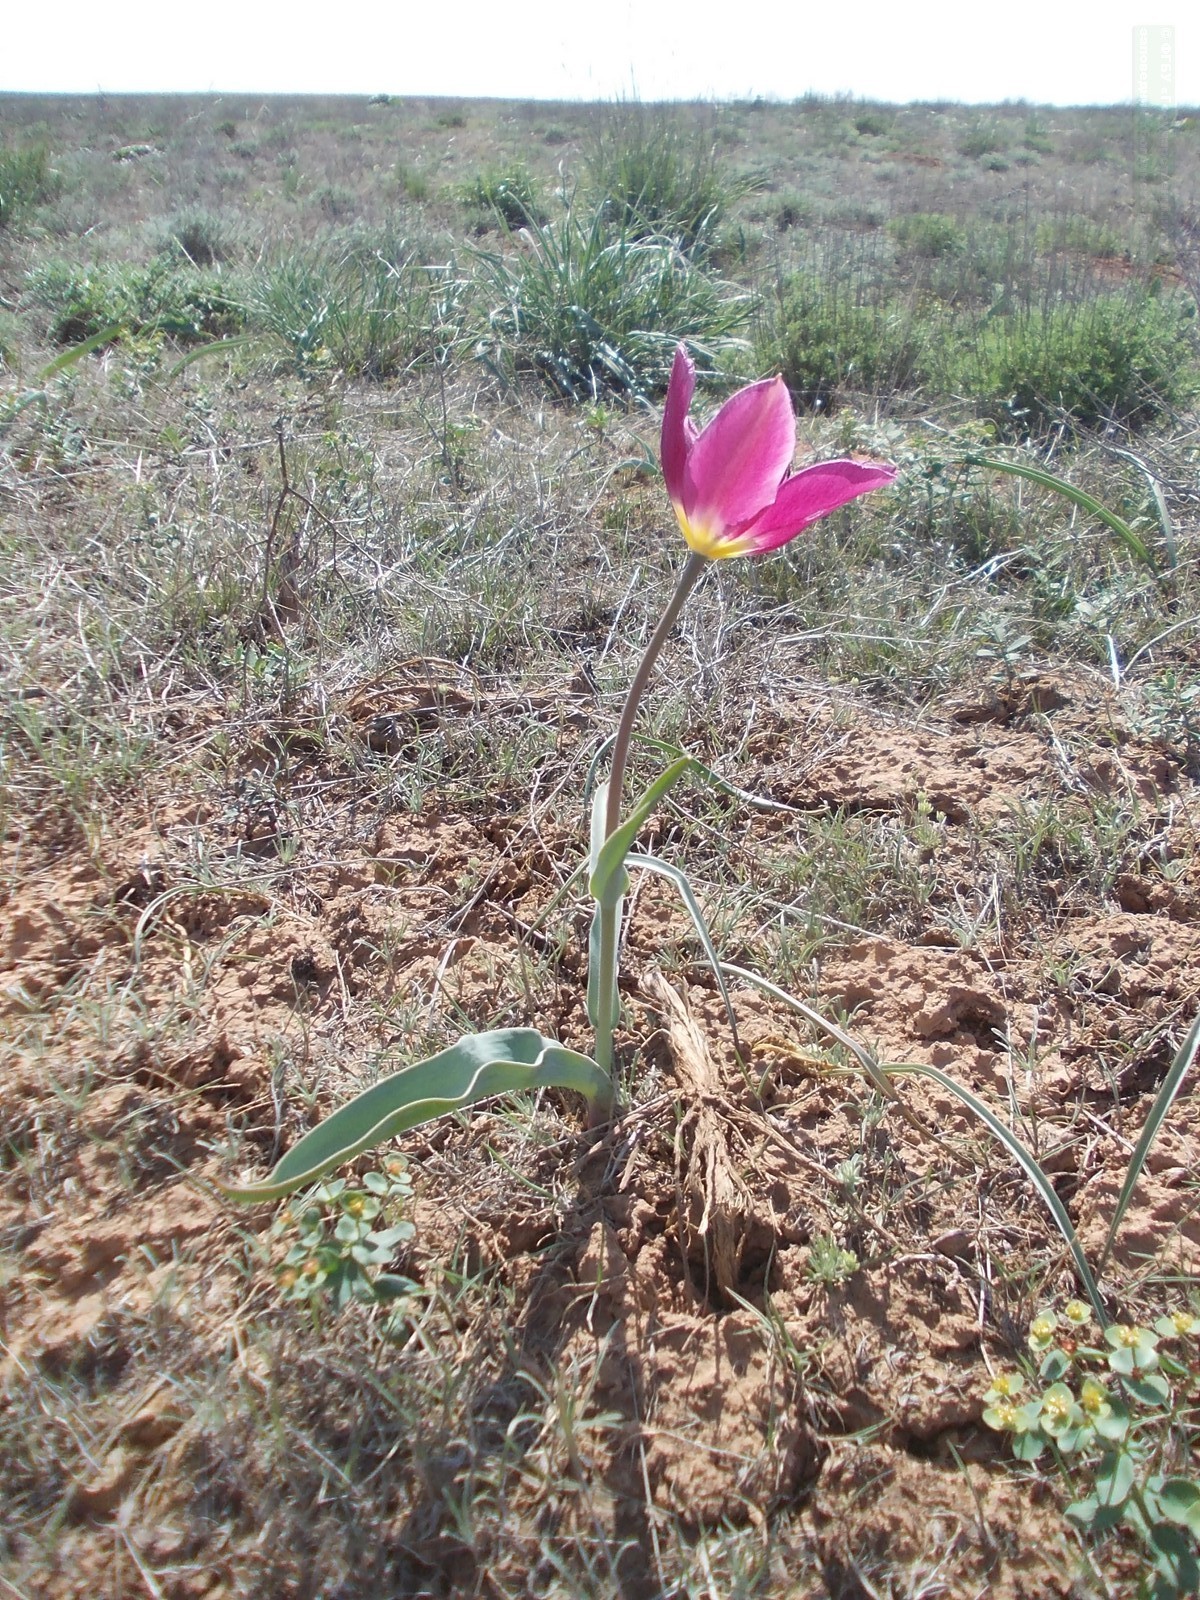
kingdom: Plantae
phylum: Tracheophyta
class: Liliopsida
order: Liliales
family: Liliaceae
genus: Tulipa
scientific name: Tulipa suaveolens
